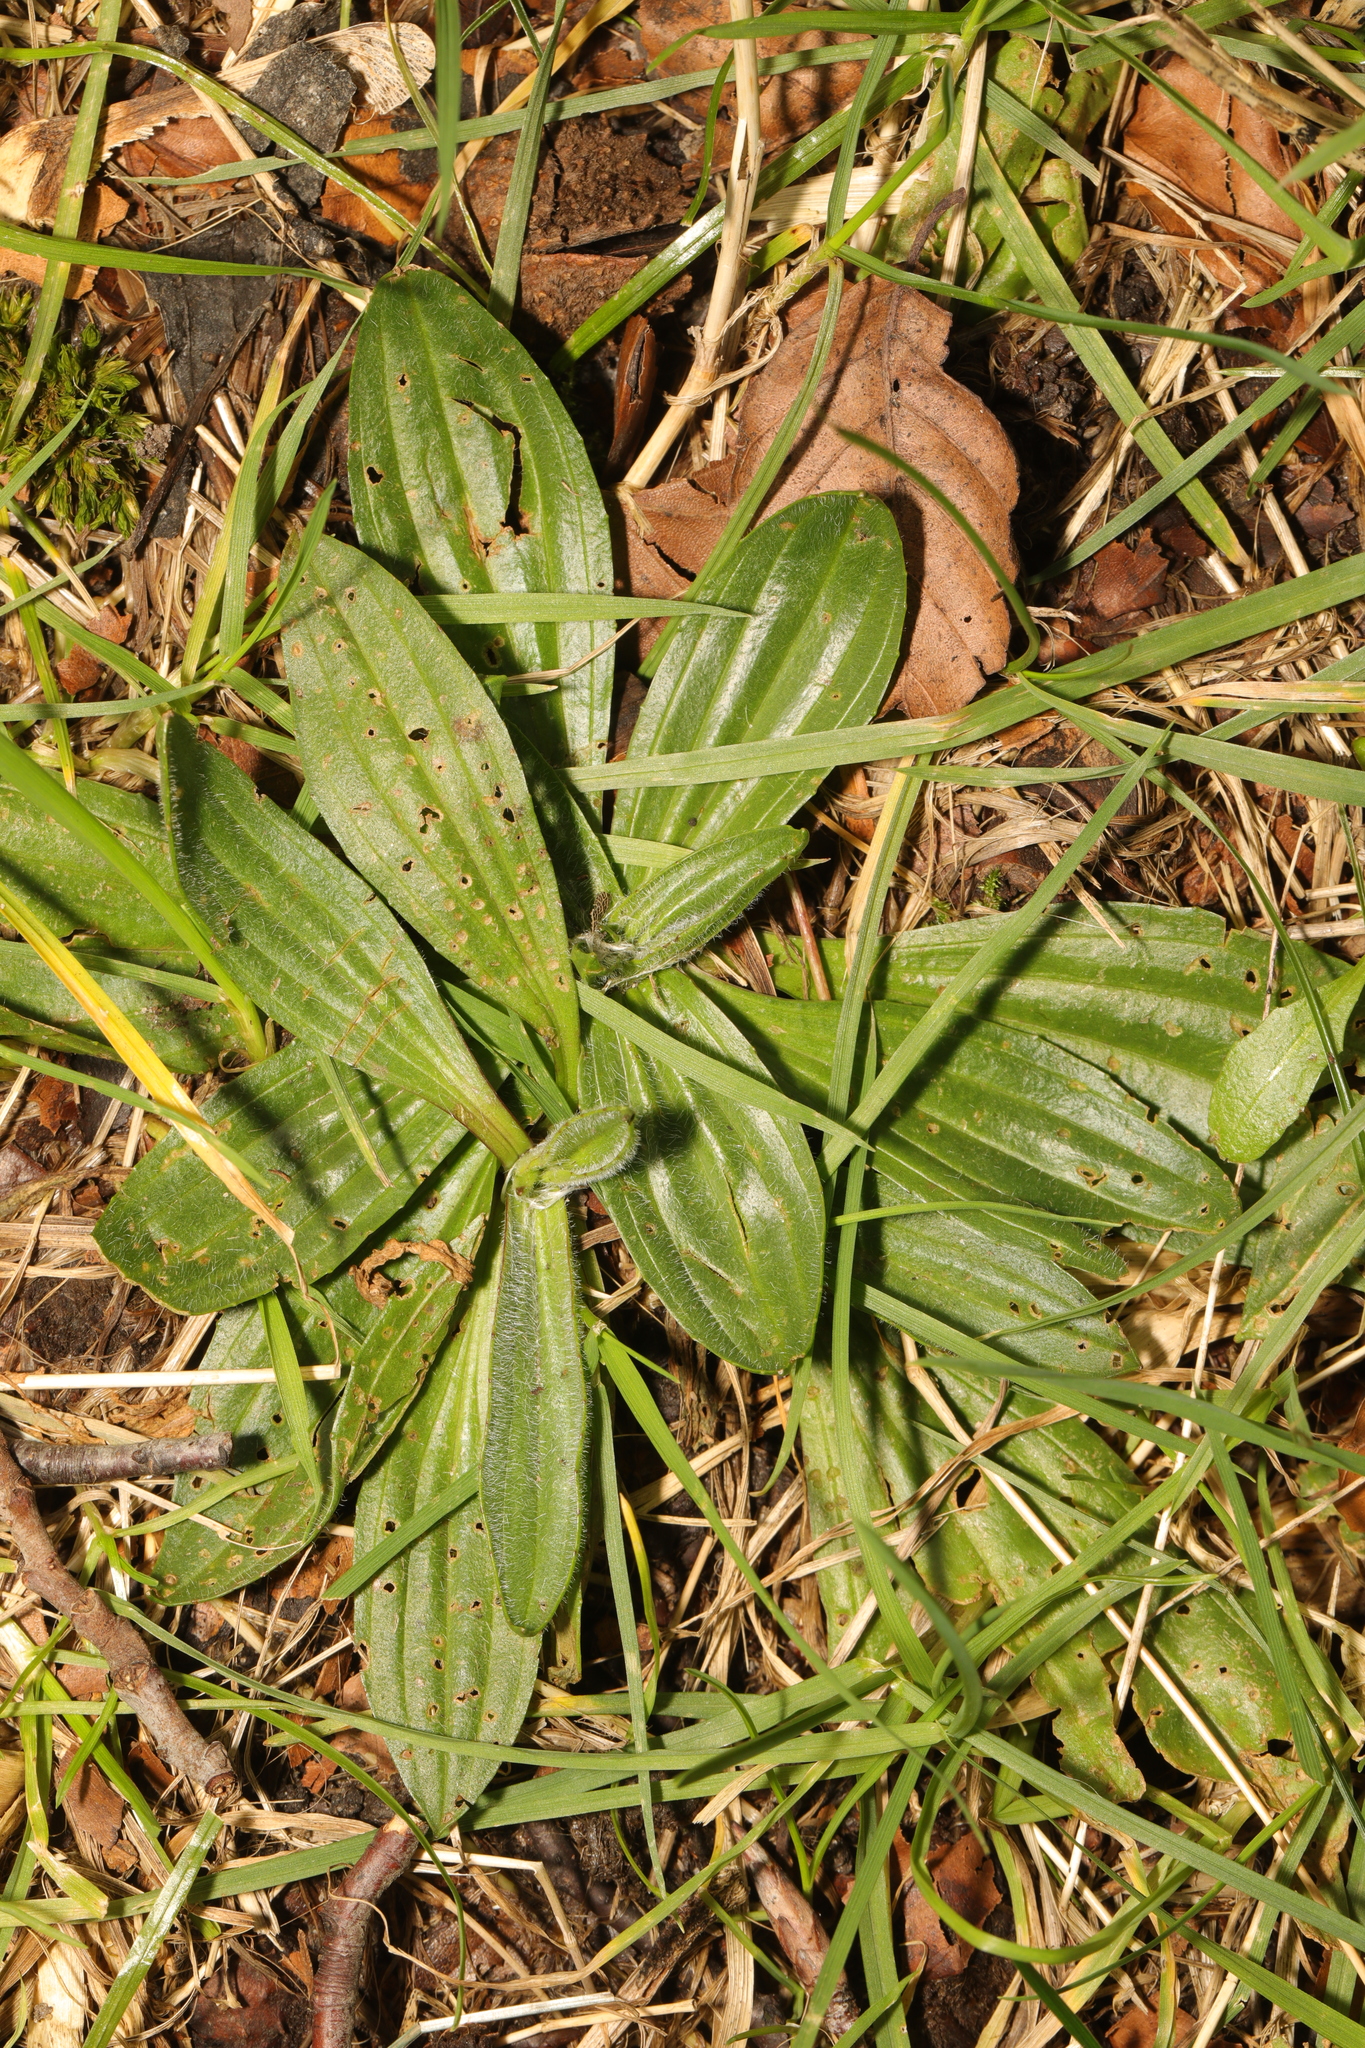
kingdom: Plantae
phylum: Tracheophyta
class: Magnoliopsida
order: Lamiales
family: Plantaginaceae
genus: Plantago
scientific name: Plantago lanceolata
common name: Ribwort plantain
